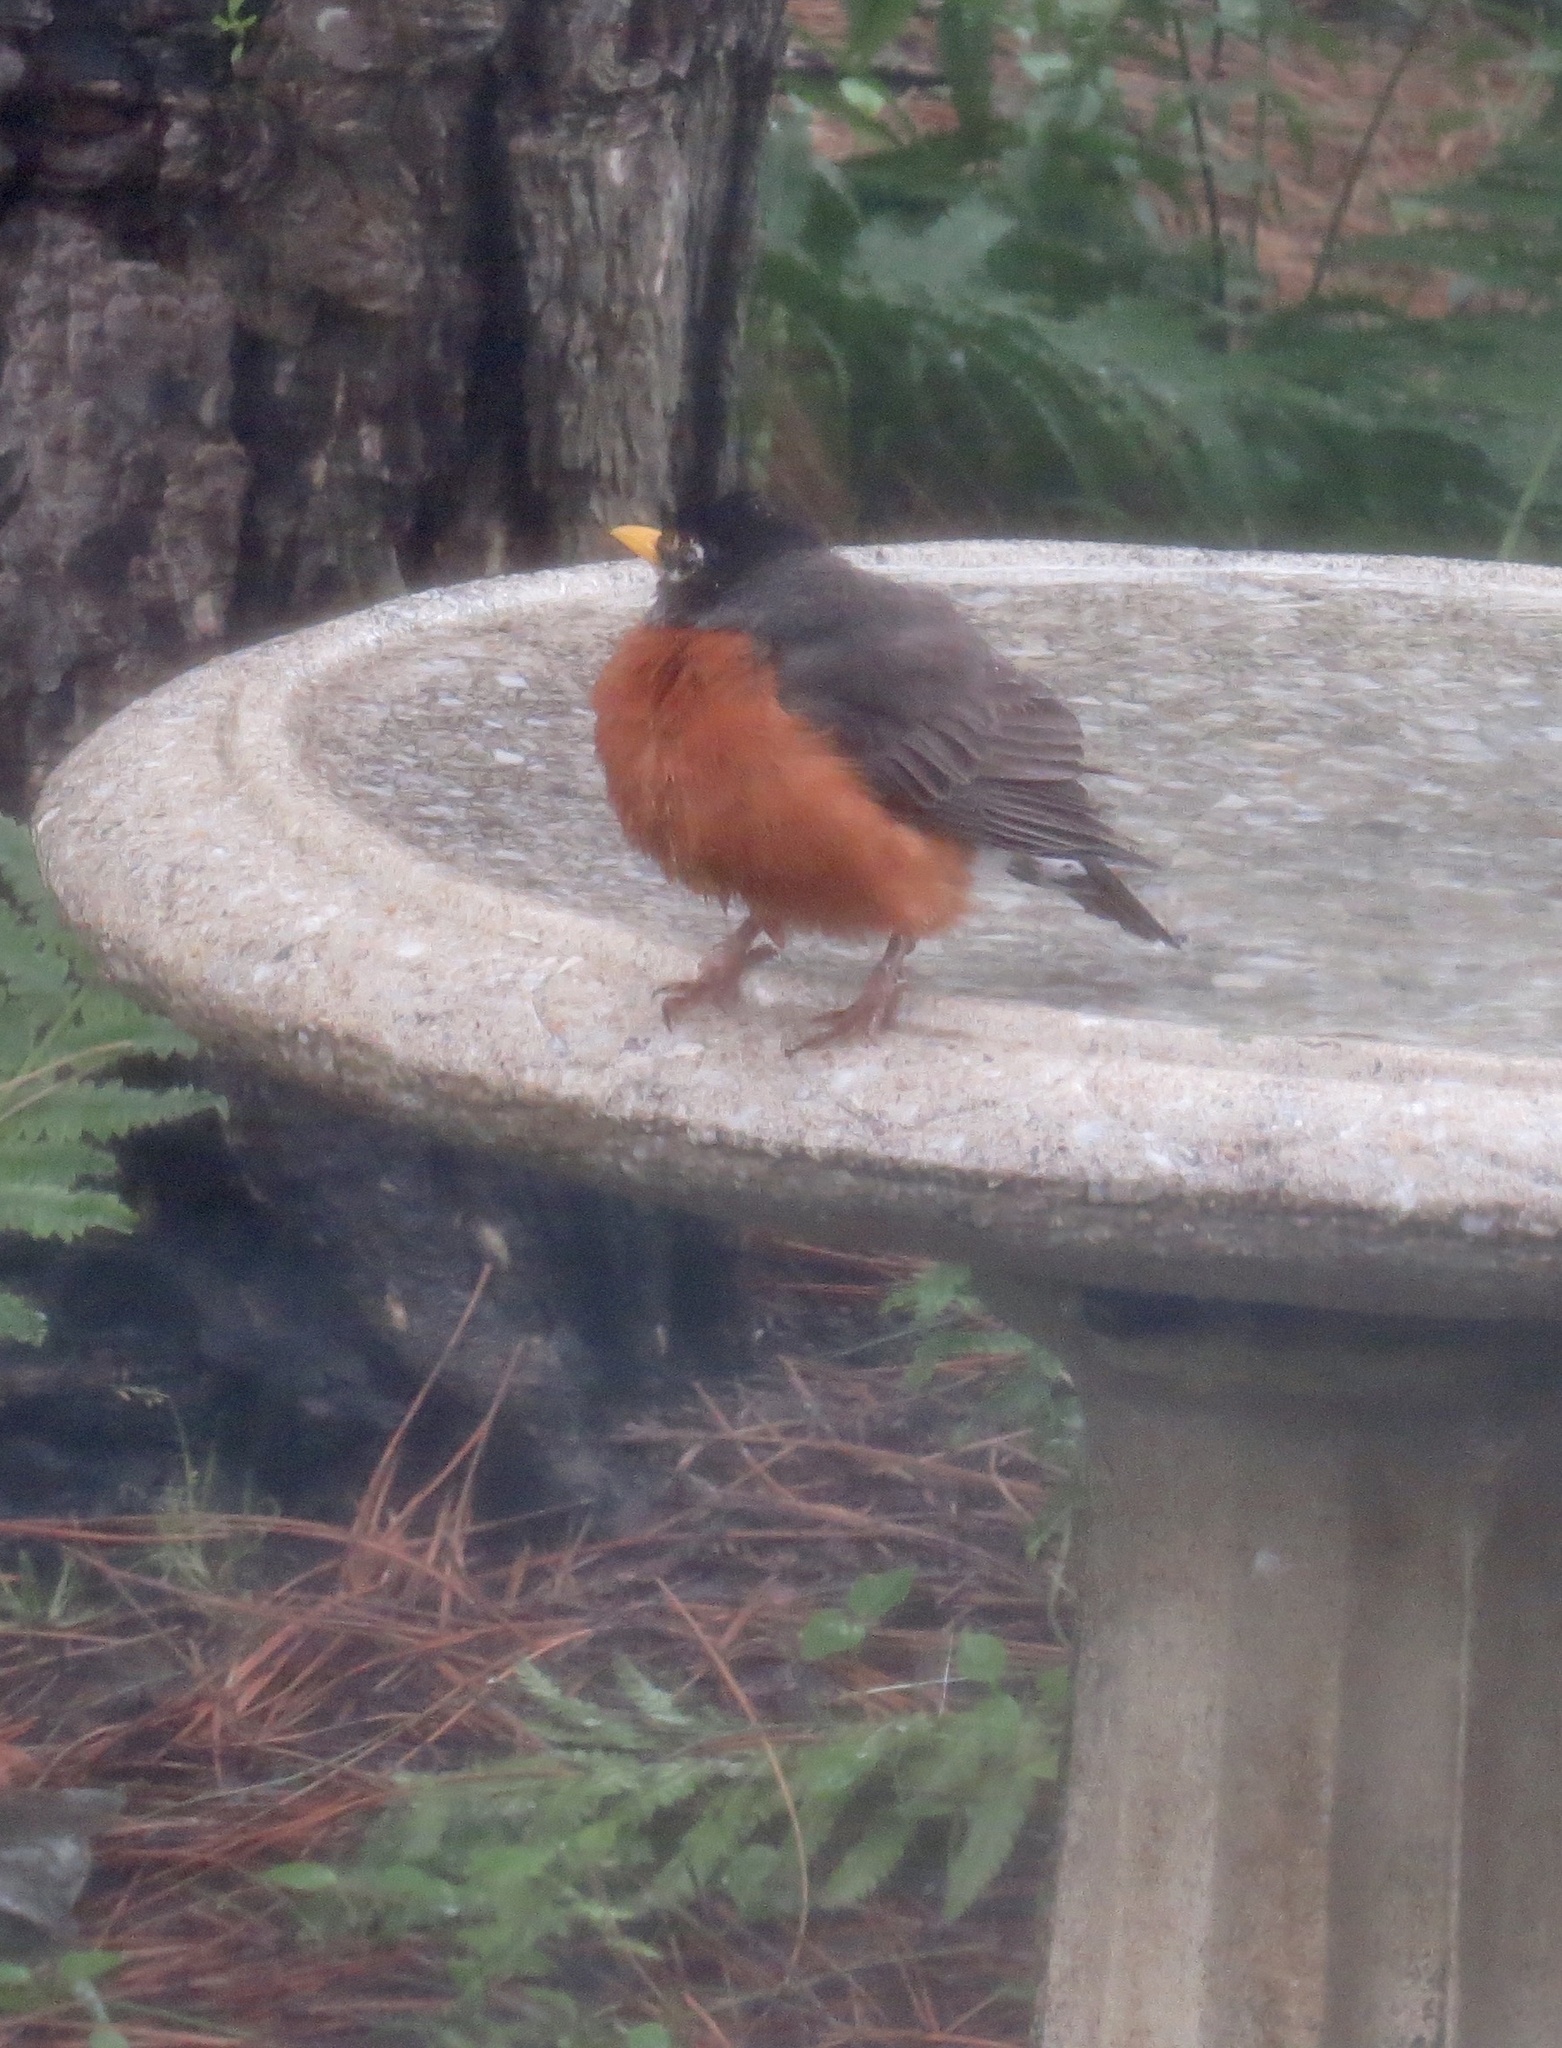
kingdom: Animalia
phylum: Chordata
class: Aves
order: Passeriformes
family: Turdidae
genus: Turdus
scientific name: Turdus migratorius
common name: American robin
